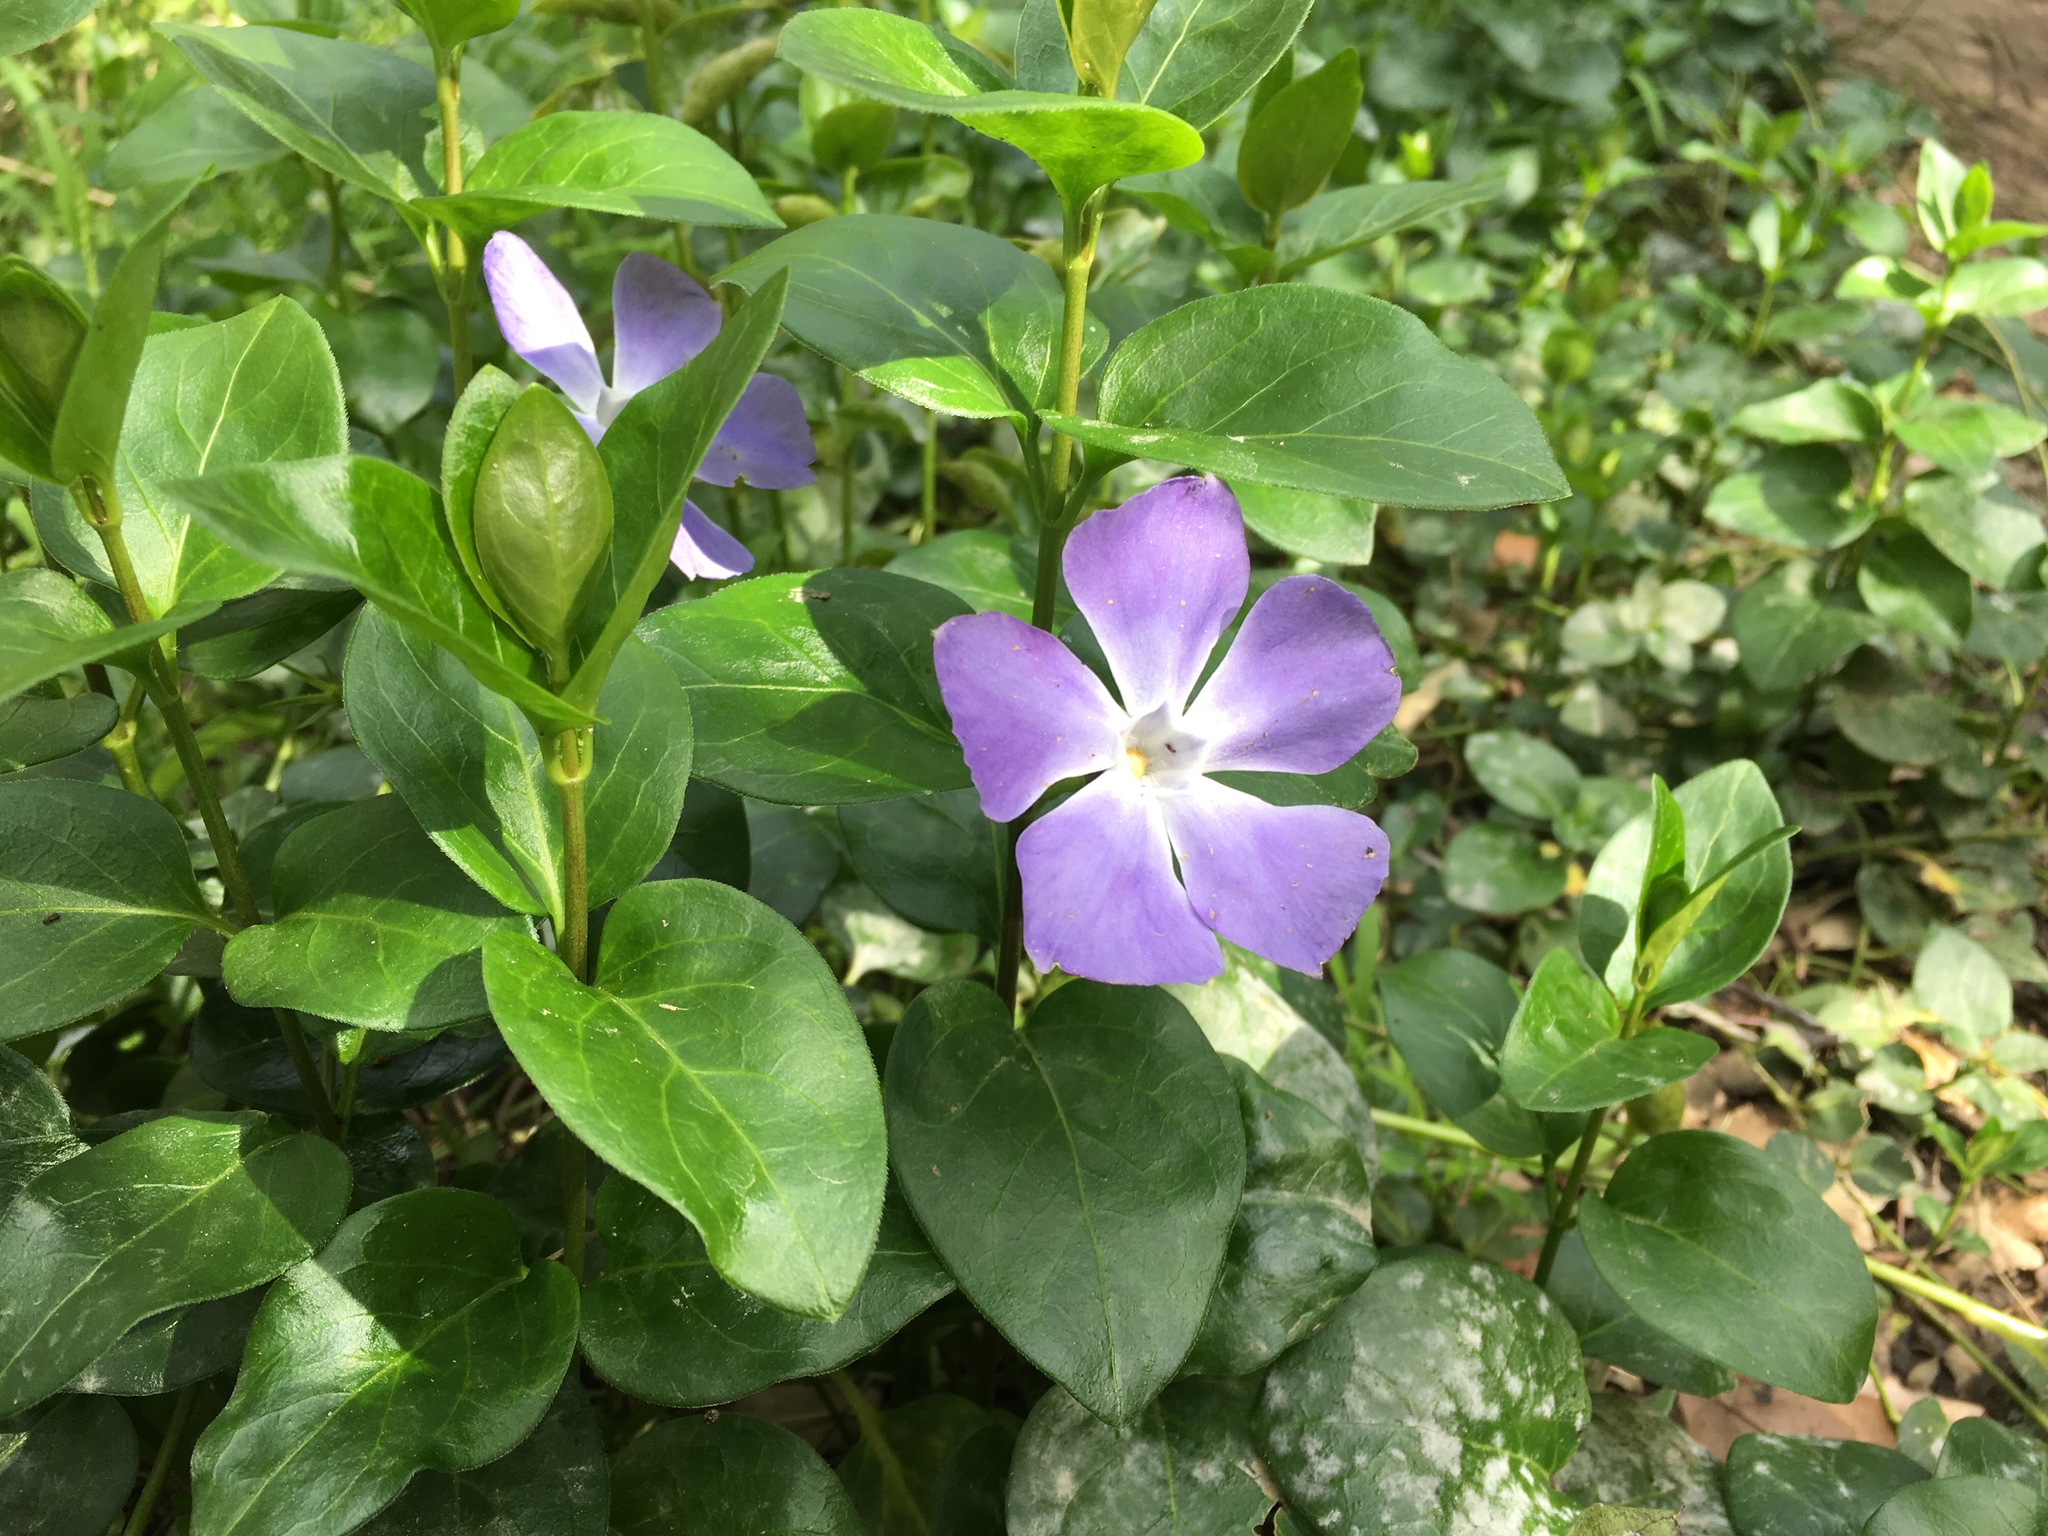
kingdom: Plantae
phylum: Tracheophyta
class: Magnoliopsida
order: Gentianales
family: Apocynaceae
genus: Vinca
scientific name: Vinca major
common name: Greater periwinkle
